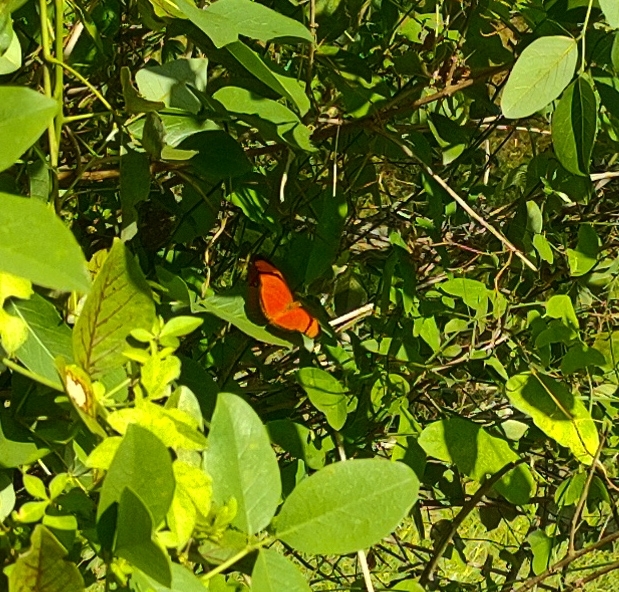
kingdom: Animalia
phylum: Arthropoda
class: Insecta
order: Lepidoptera
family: Nymphalidae
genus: Dryas
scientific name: Dryas iulia
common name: Flambeau
